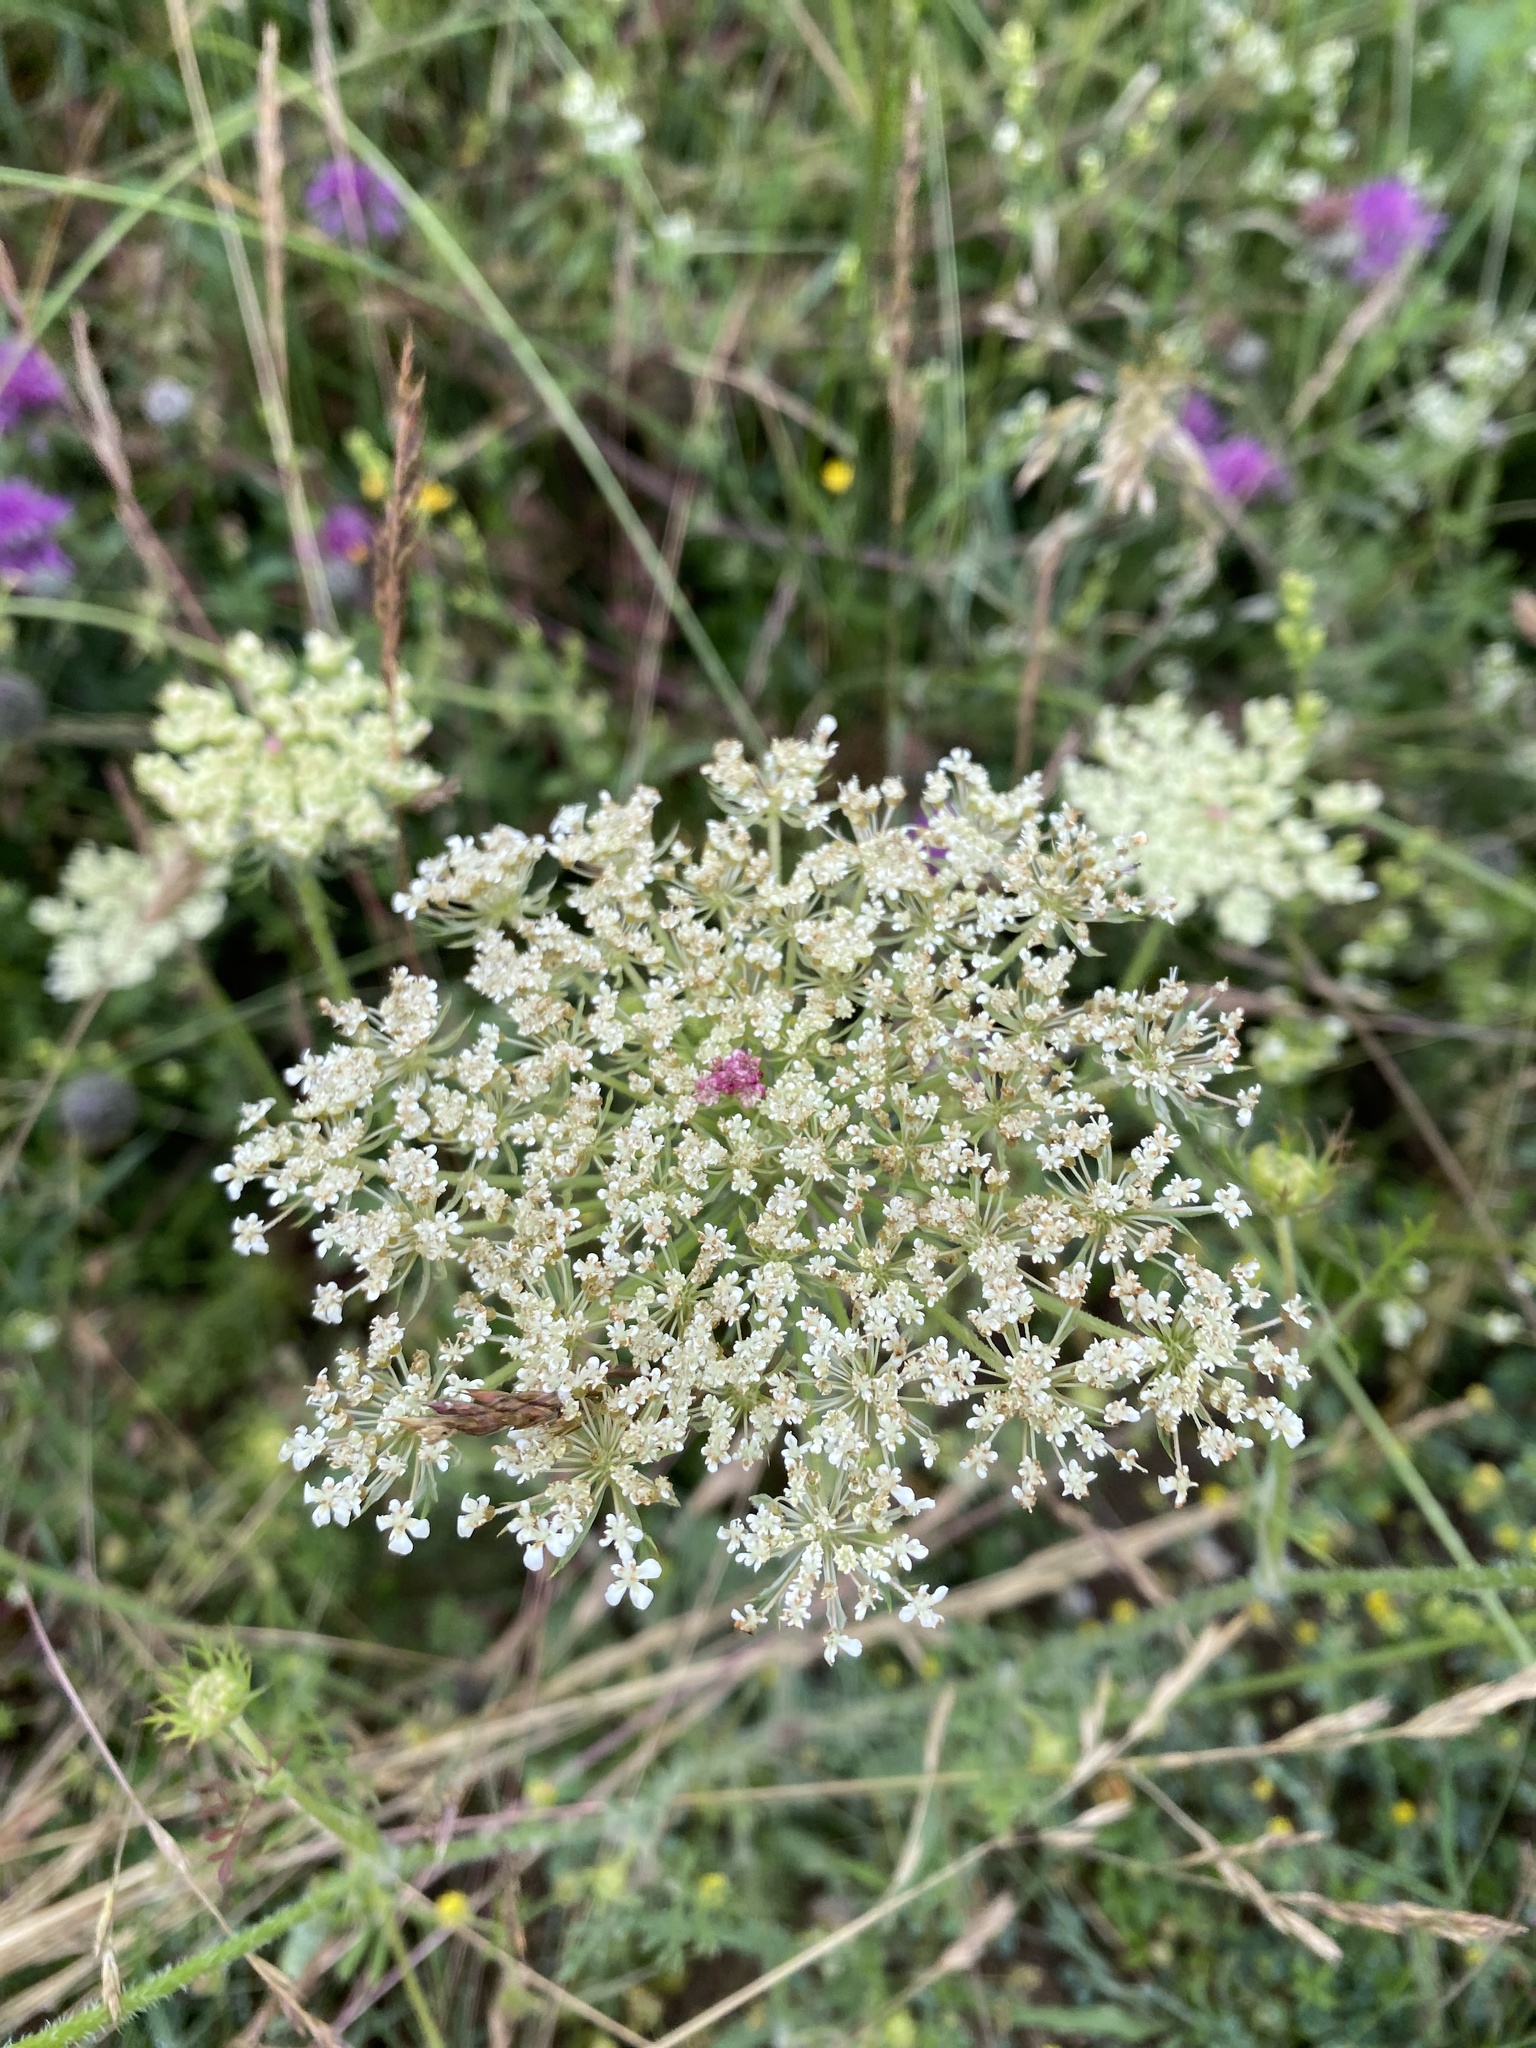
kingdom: Plantae
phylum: Tracheophyta
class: Magnoliopsida
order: Apiales
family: Apiaceae
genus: Daucus
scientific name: Daucus carota
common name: Wild carrot
